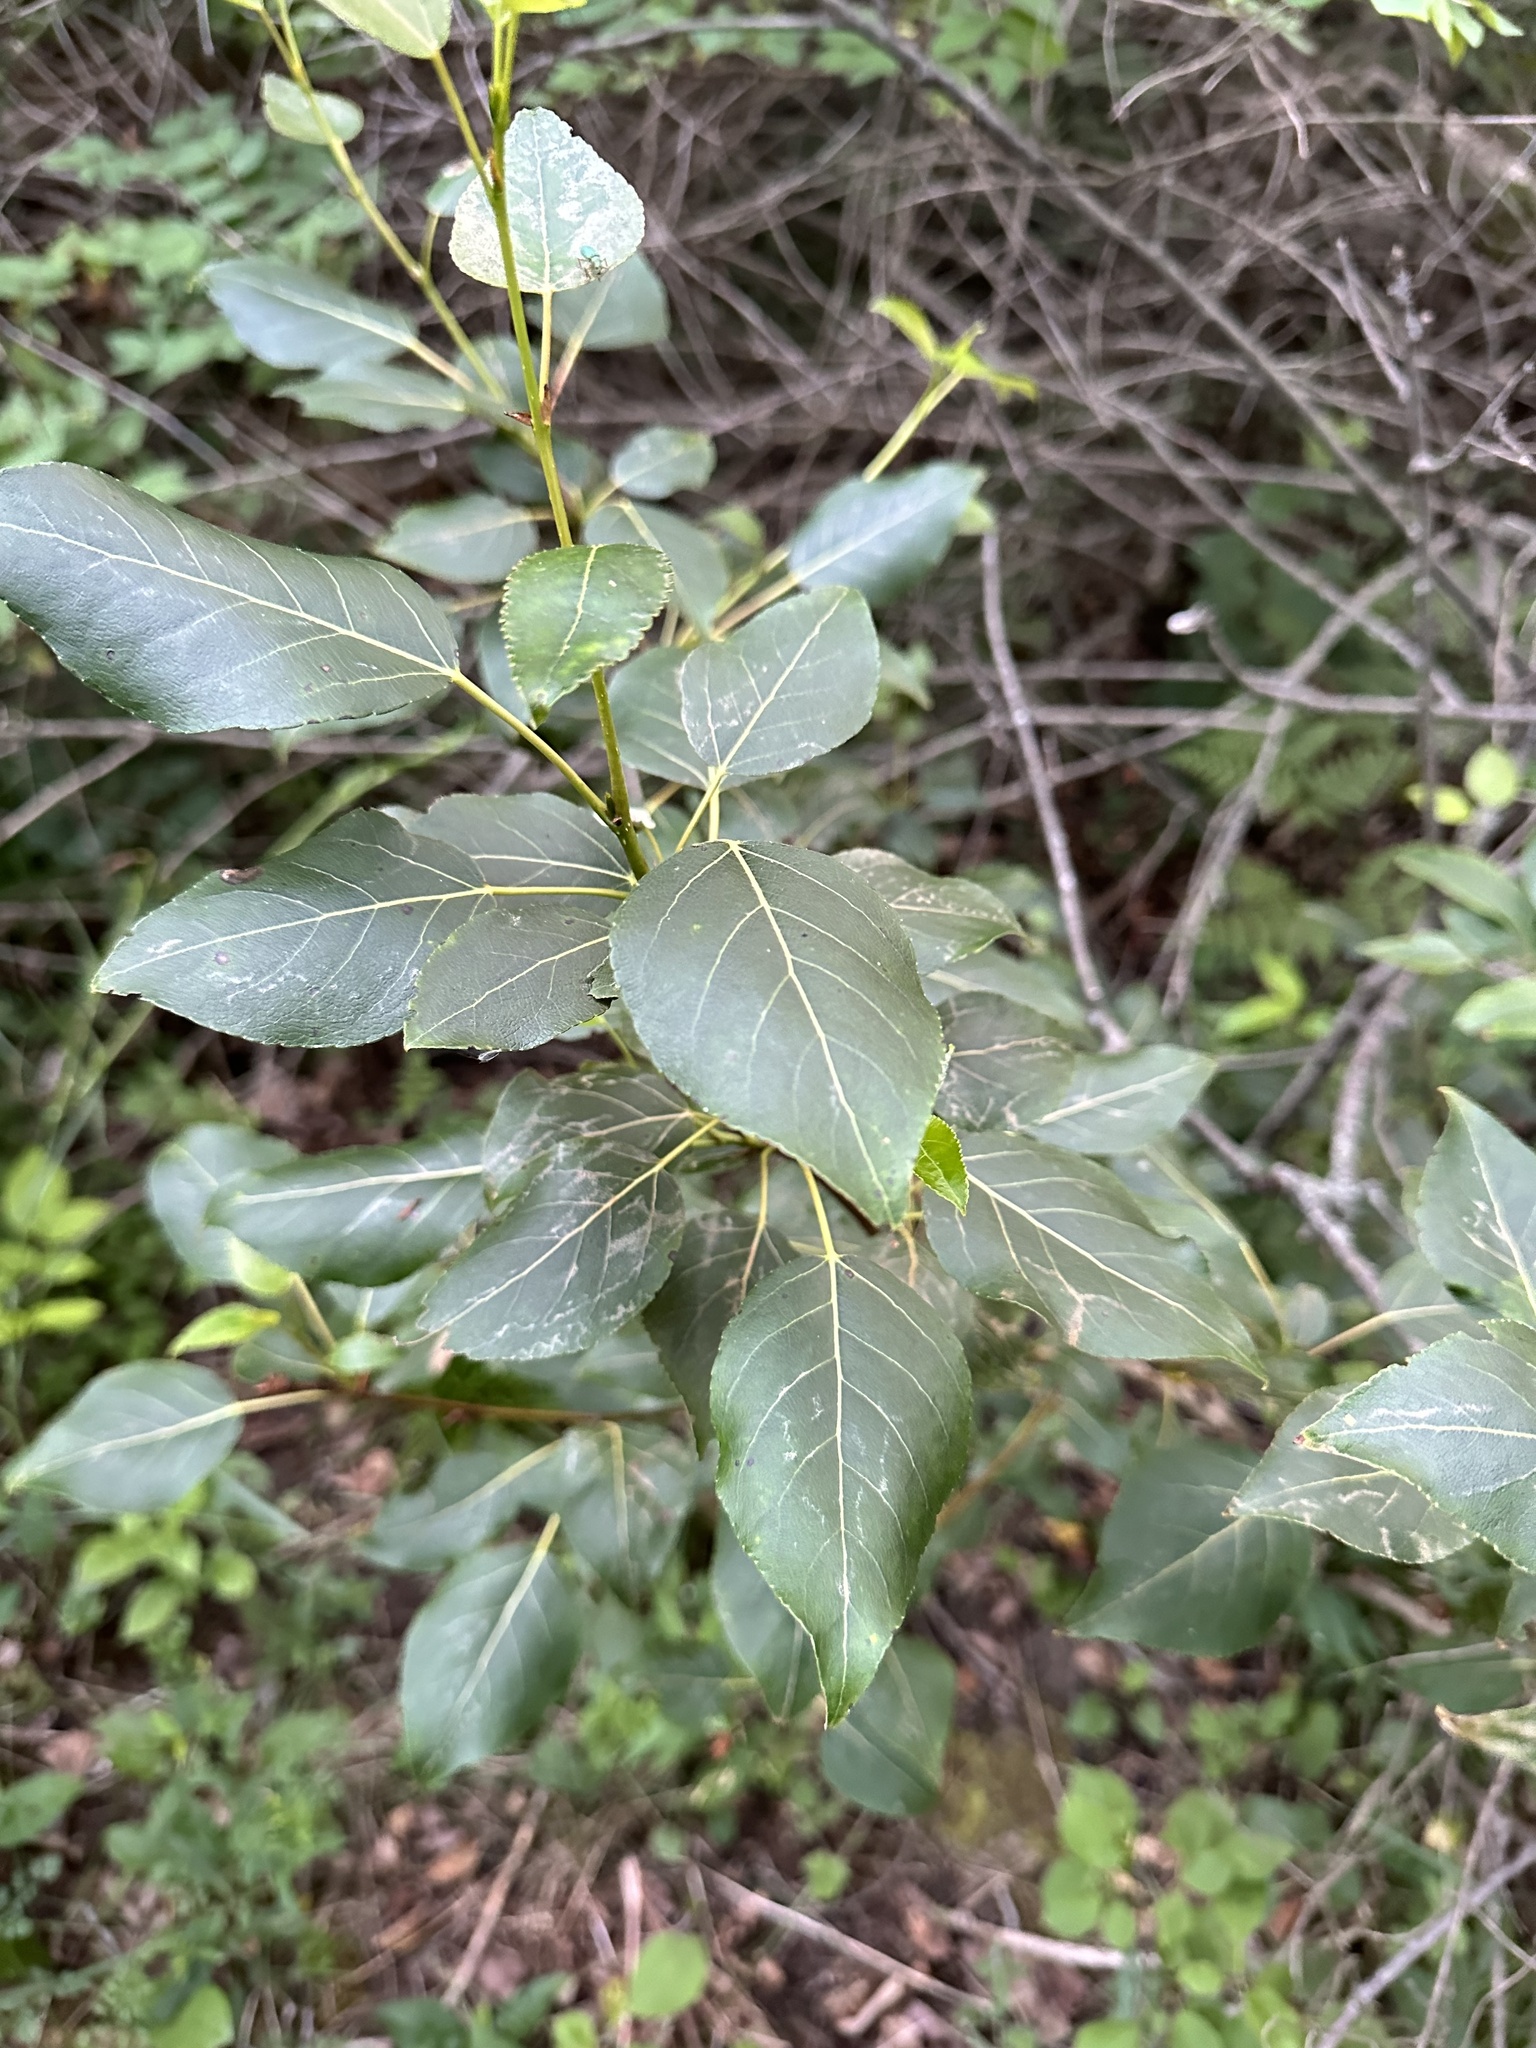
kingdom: Plantae
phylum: Tracheophyta
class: Magnoliopsida
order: Malpighiales
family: Salicaceae
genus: Populus
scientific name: Populus balsamifera
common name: Balsam poplar
